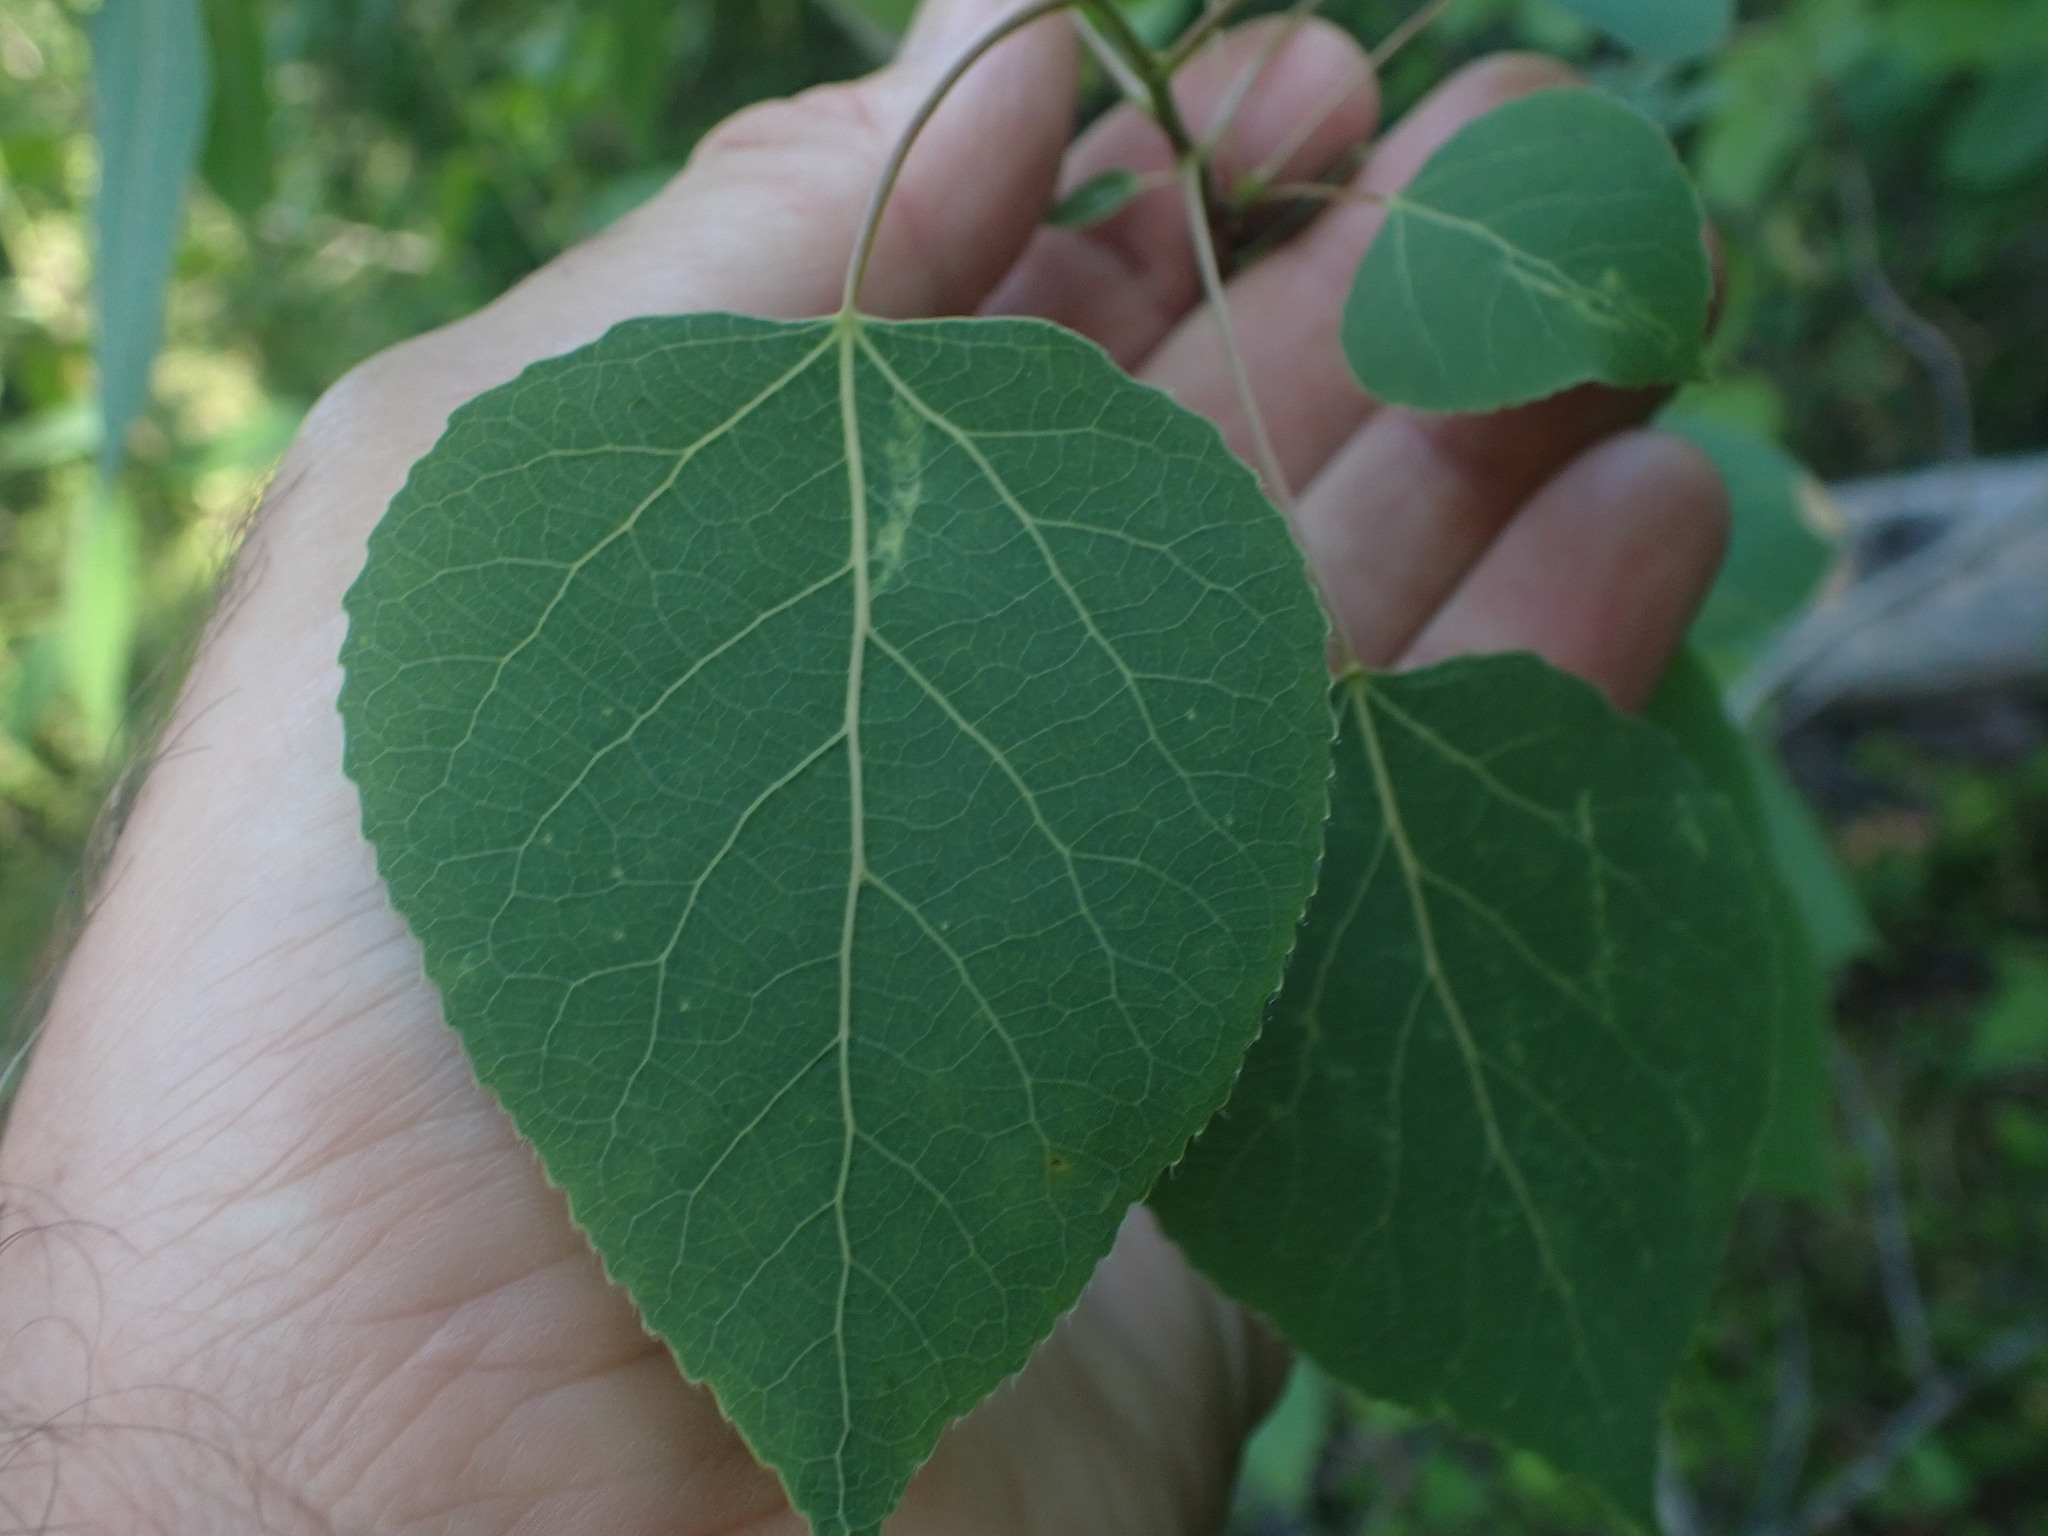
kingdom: Plantae
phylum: Tracheophyta
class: Magnoliopsida
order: Malpighiales
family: Salicaceae
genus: Populus
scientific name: Populus tremuloides
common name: Quaking aspen
